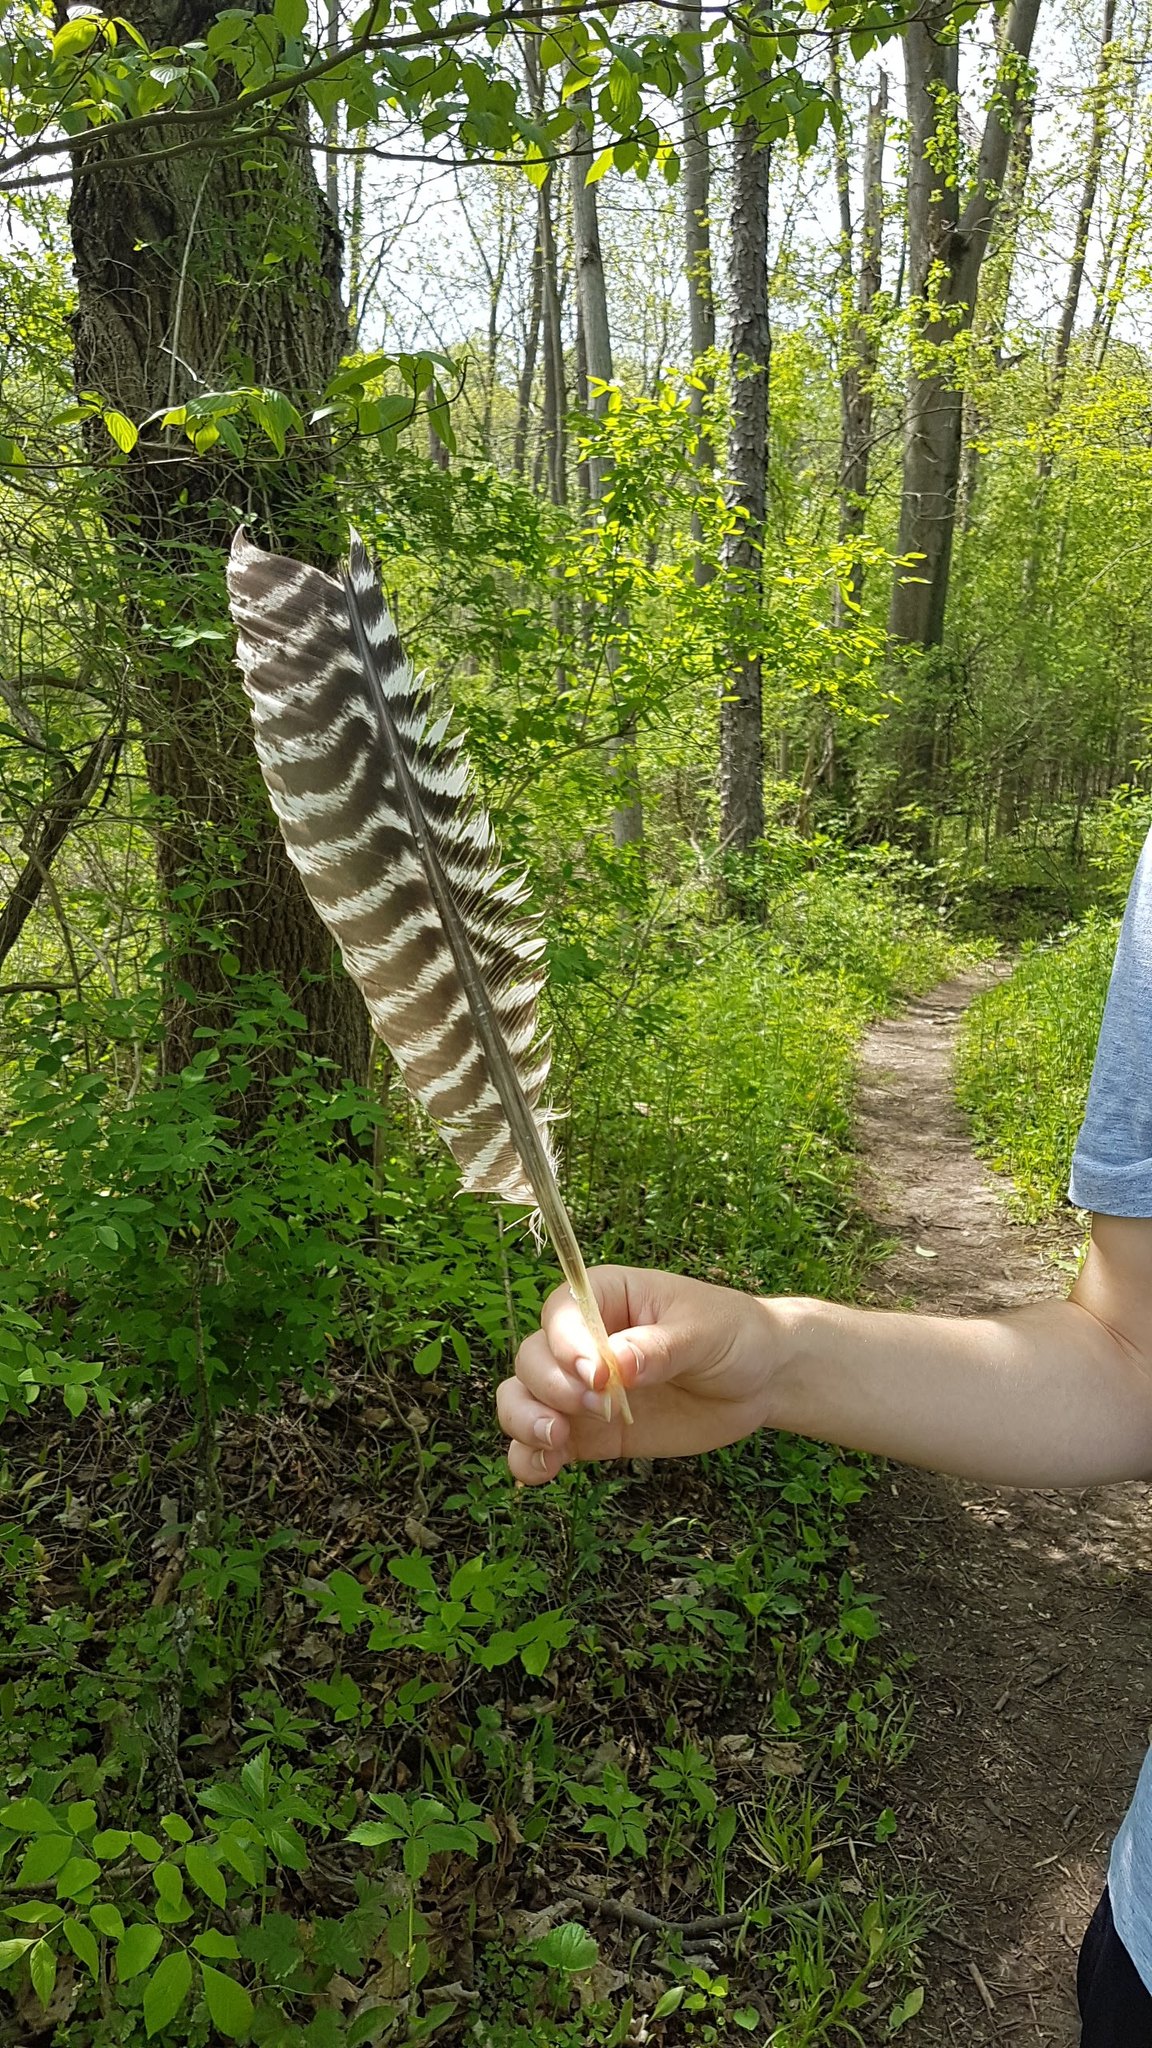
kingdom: Animalia
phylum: Chordata
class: Aves
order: Galliformes
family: Phasianidae
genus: Meleagris
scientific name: Meleagris gallopavo
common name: Wild turkey
